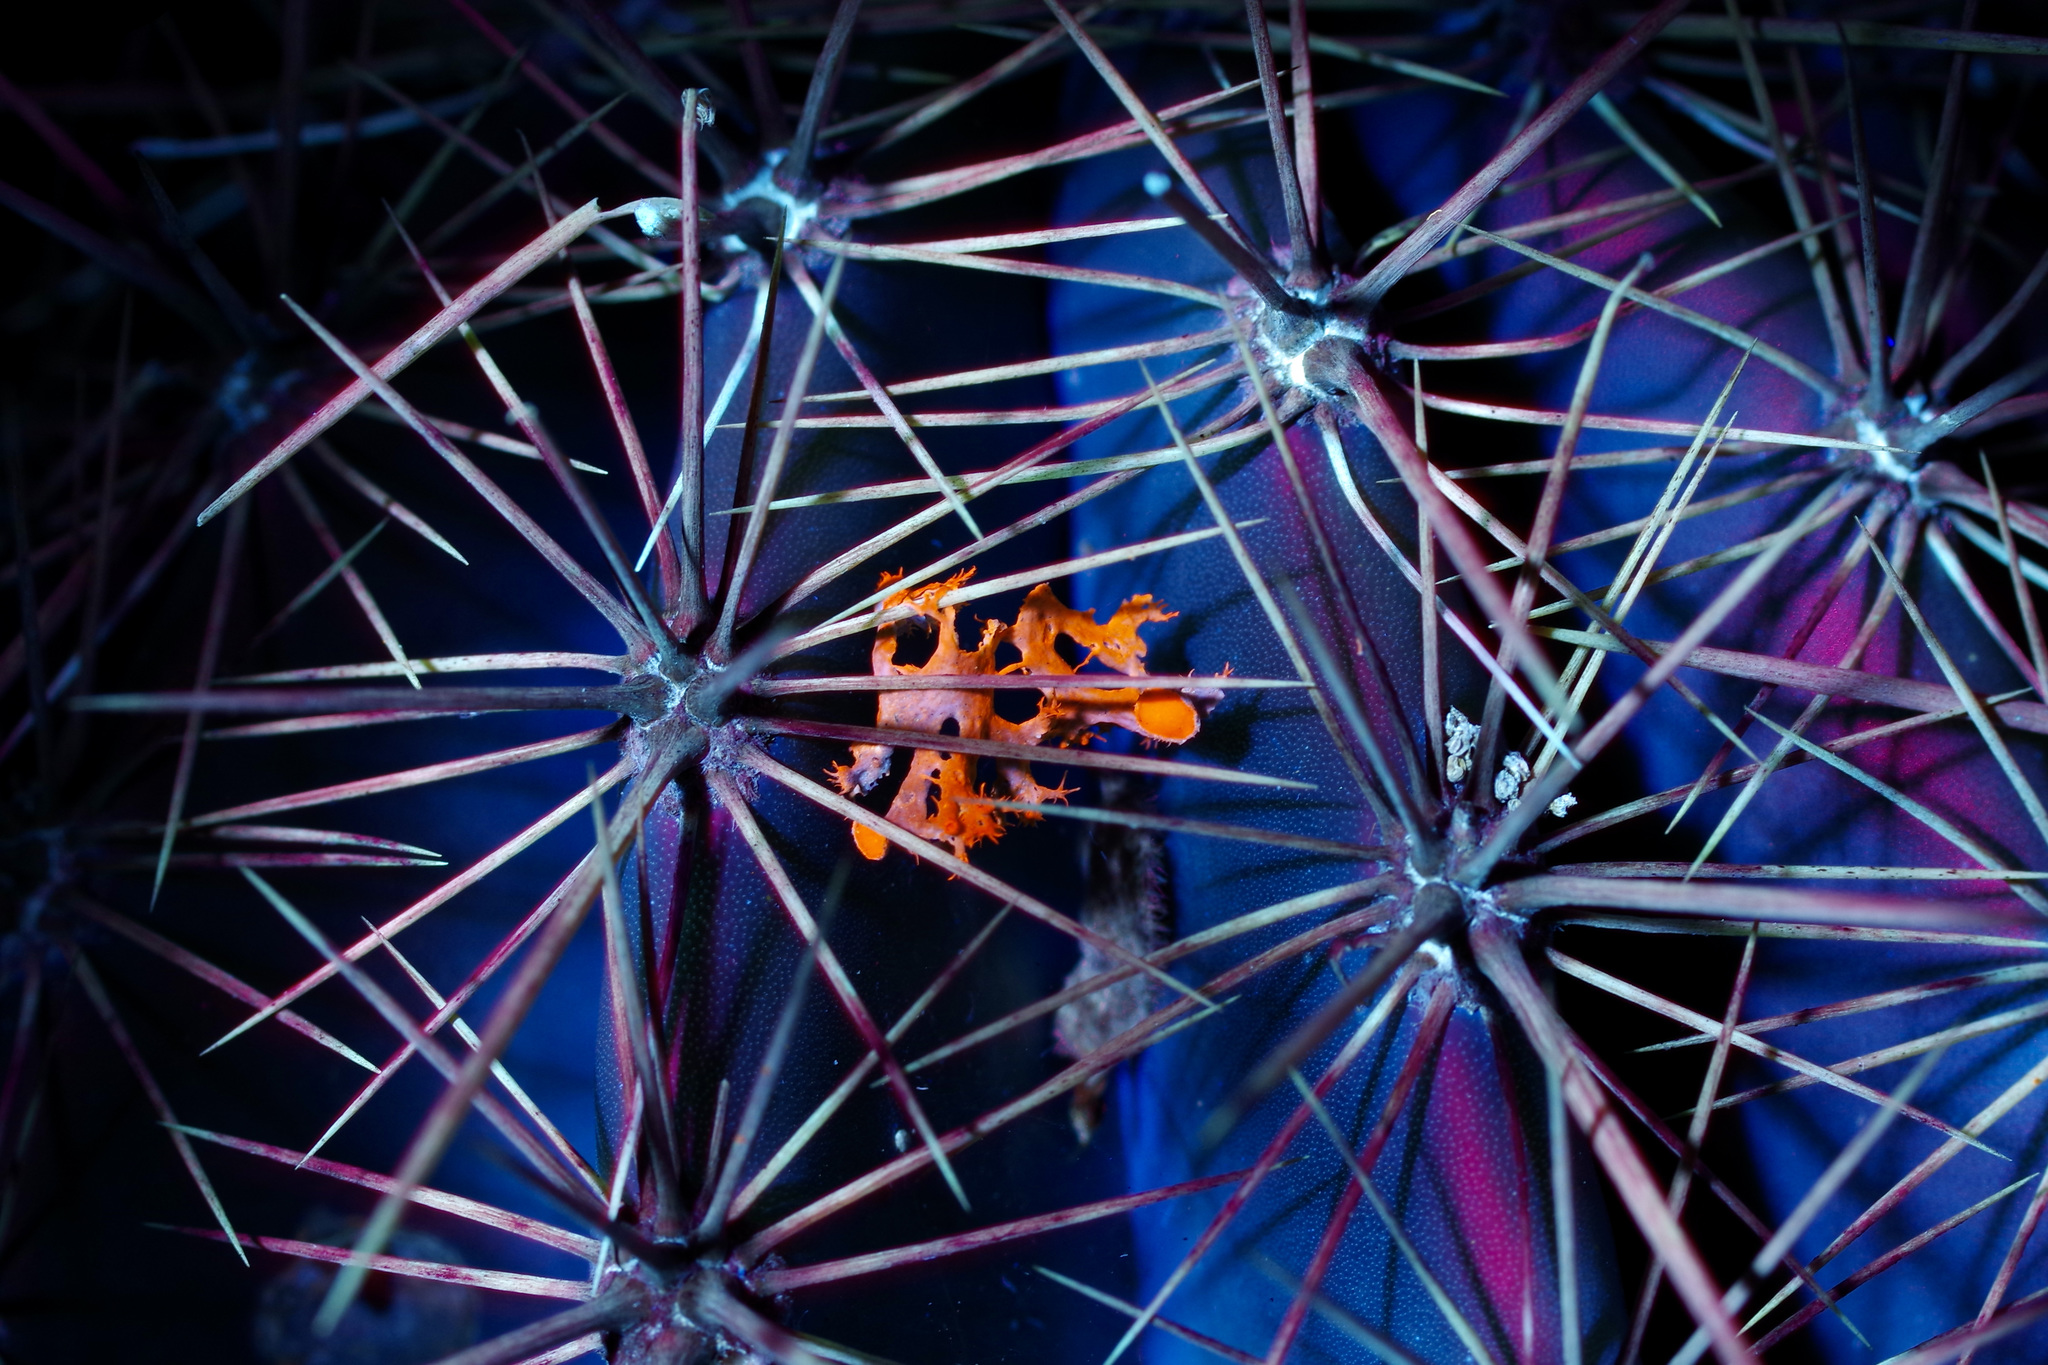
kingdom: Fungi
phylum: Ascomycota
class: Lecanoromycetes
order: Teloschistales
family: Teloschistaceae
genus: Niorma
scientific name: Niorma chrysophthalma
